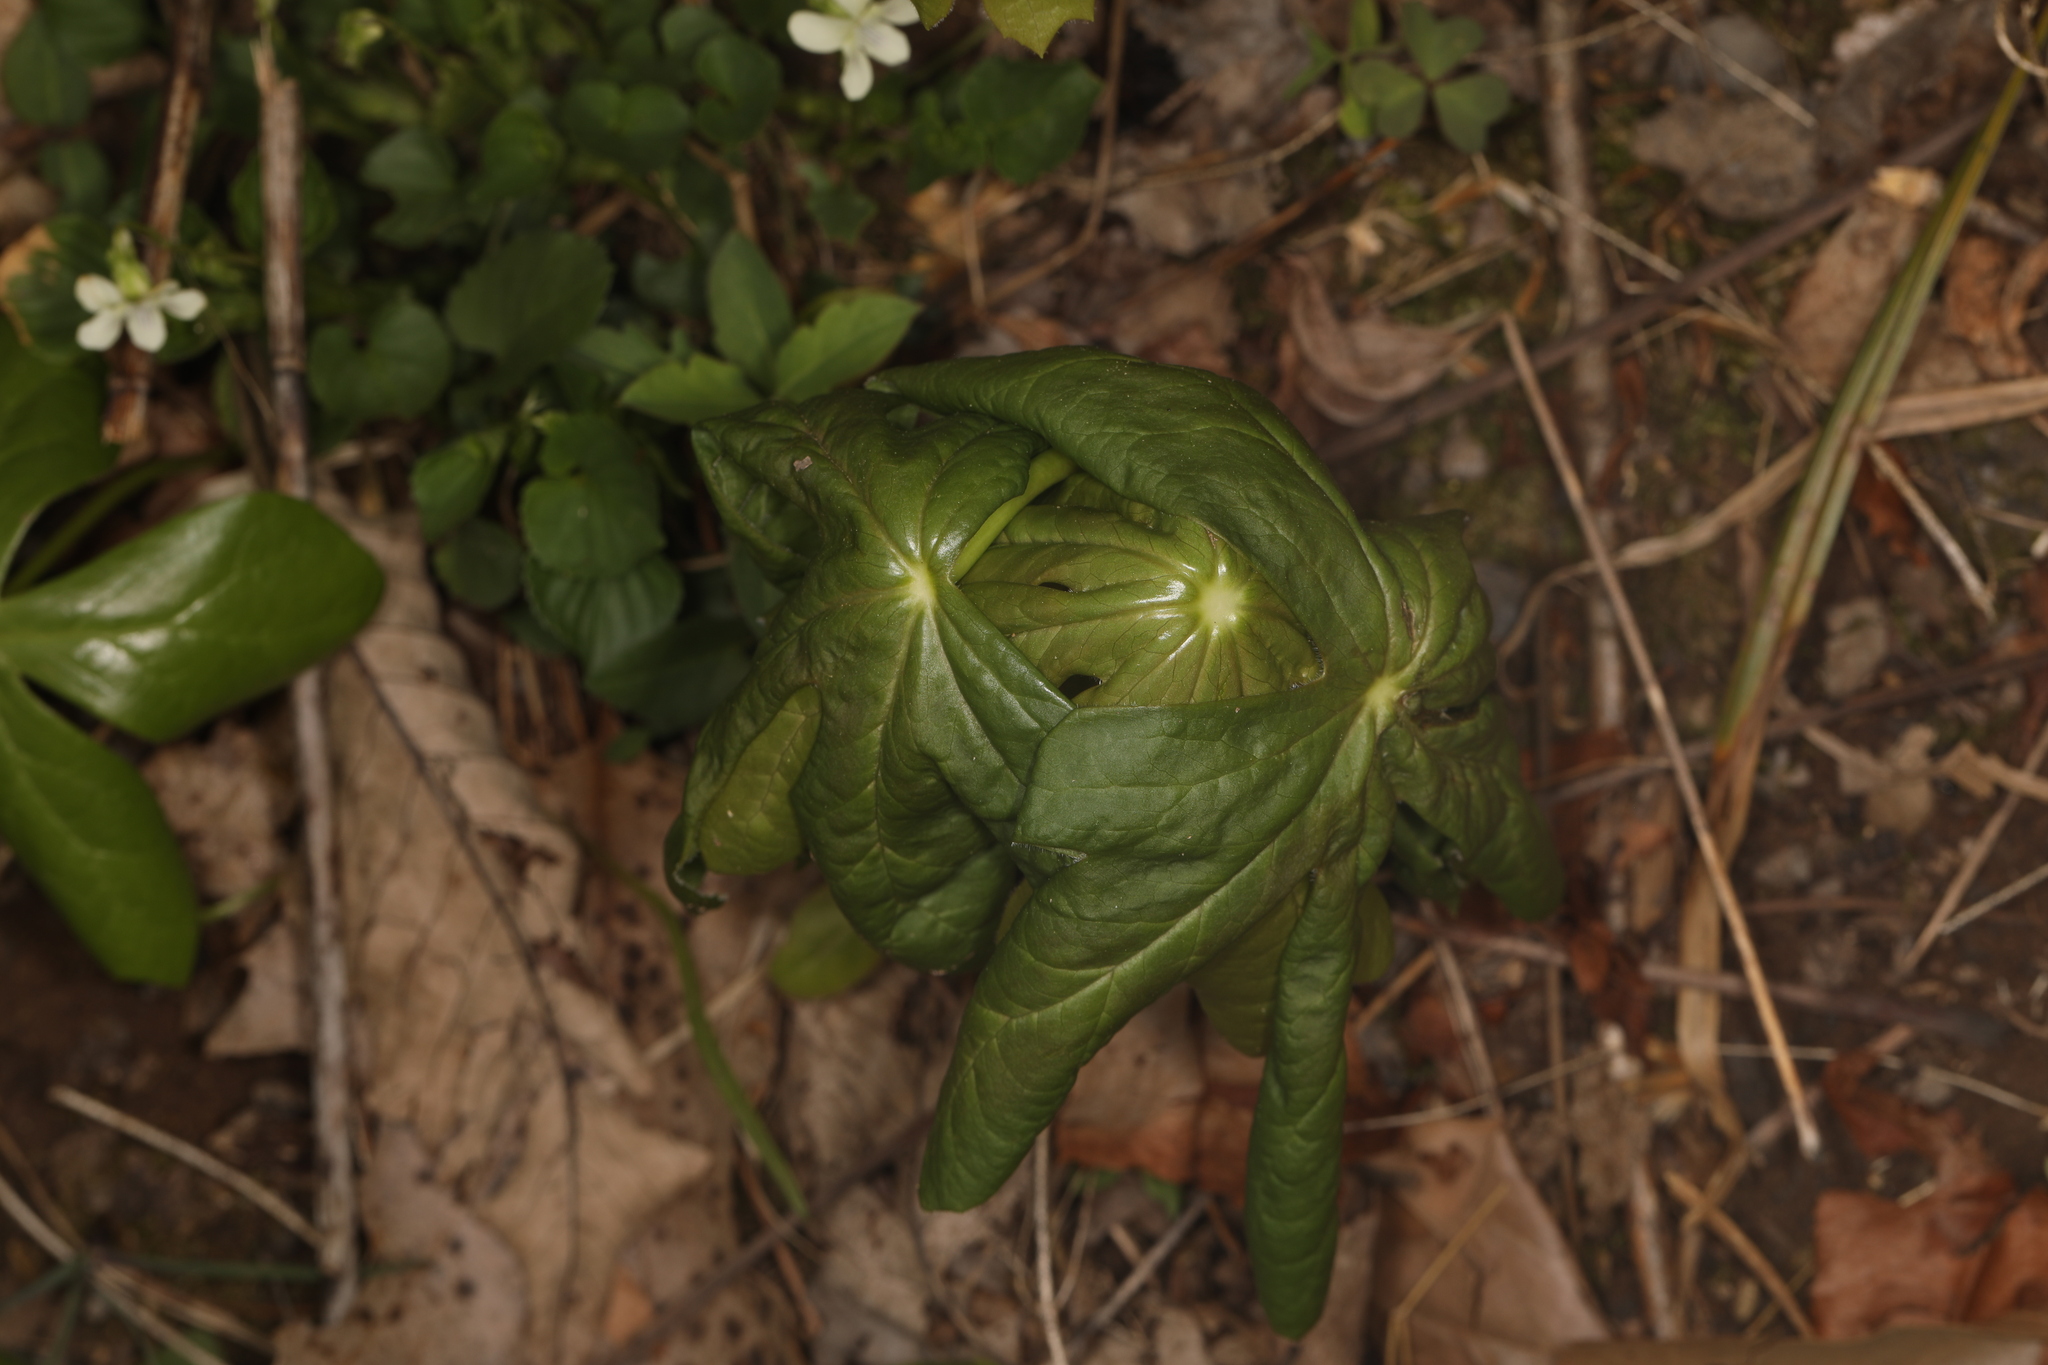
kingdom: Plantae
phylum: Tracheophyta
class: Magnoliopsida
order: Ranunculales
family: Berberidaceae
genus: Podophyllum
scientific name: Podophyllum peltatum
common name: Wild mandrake
